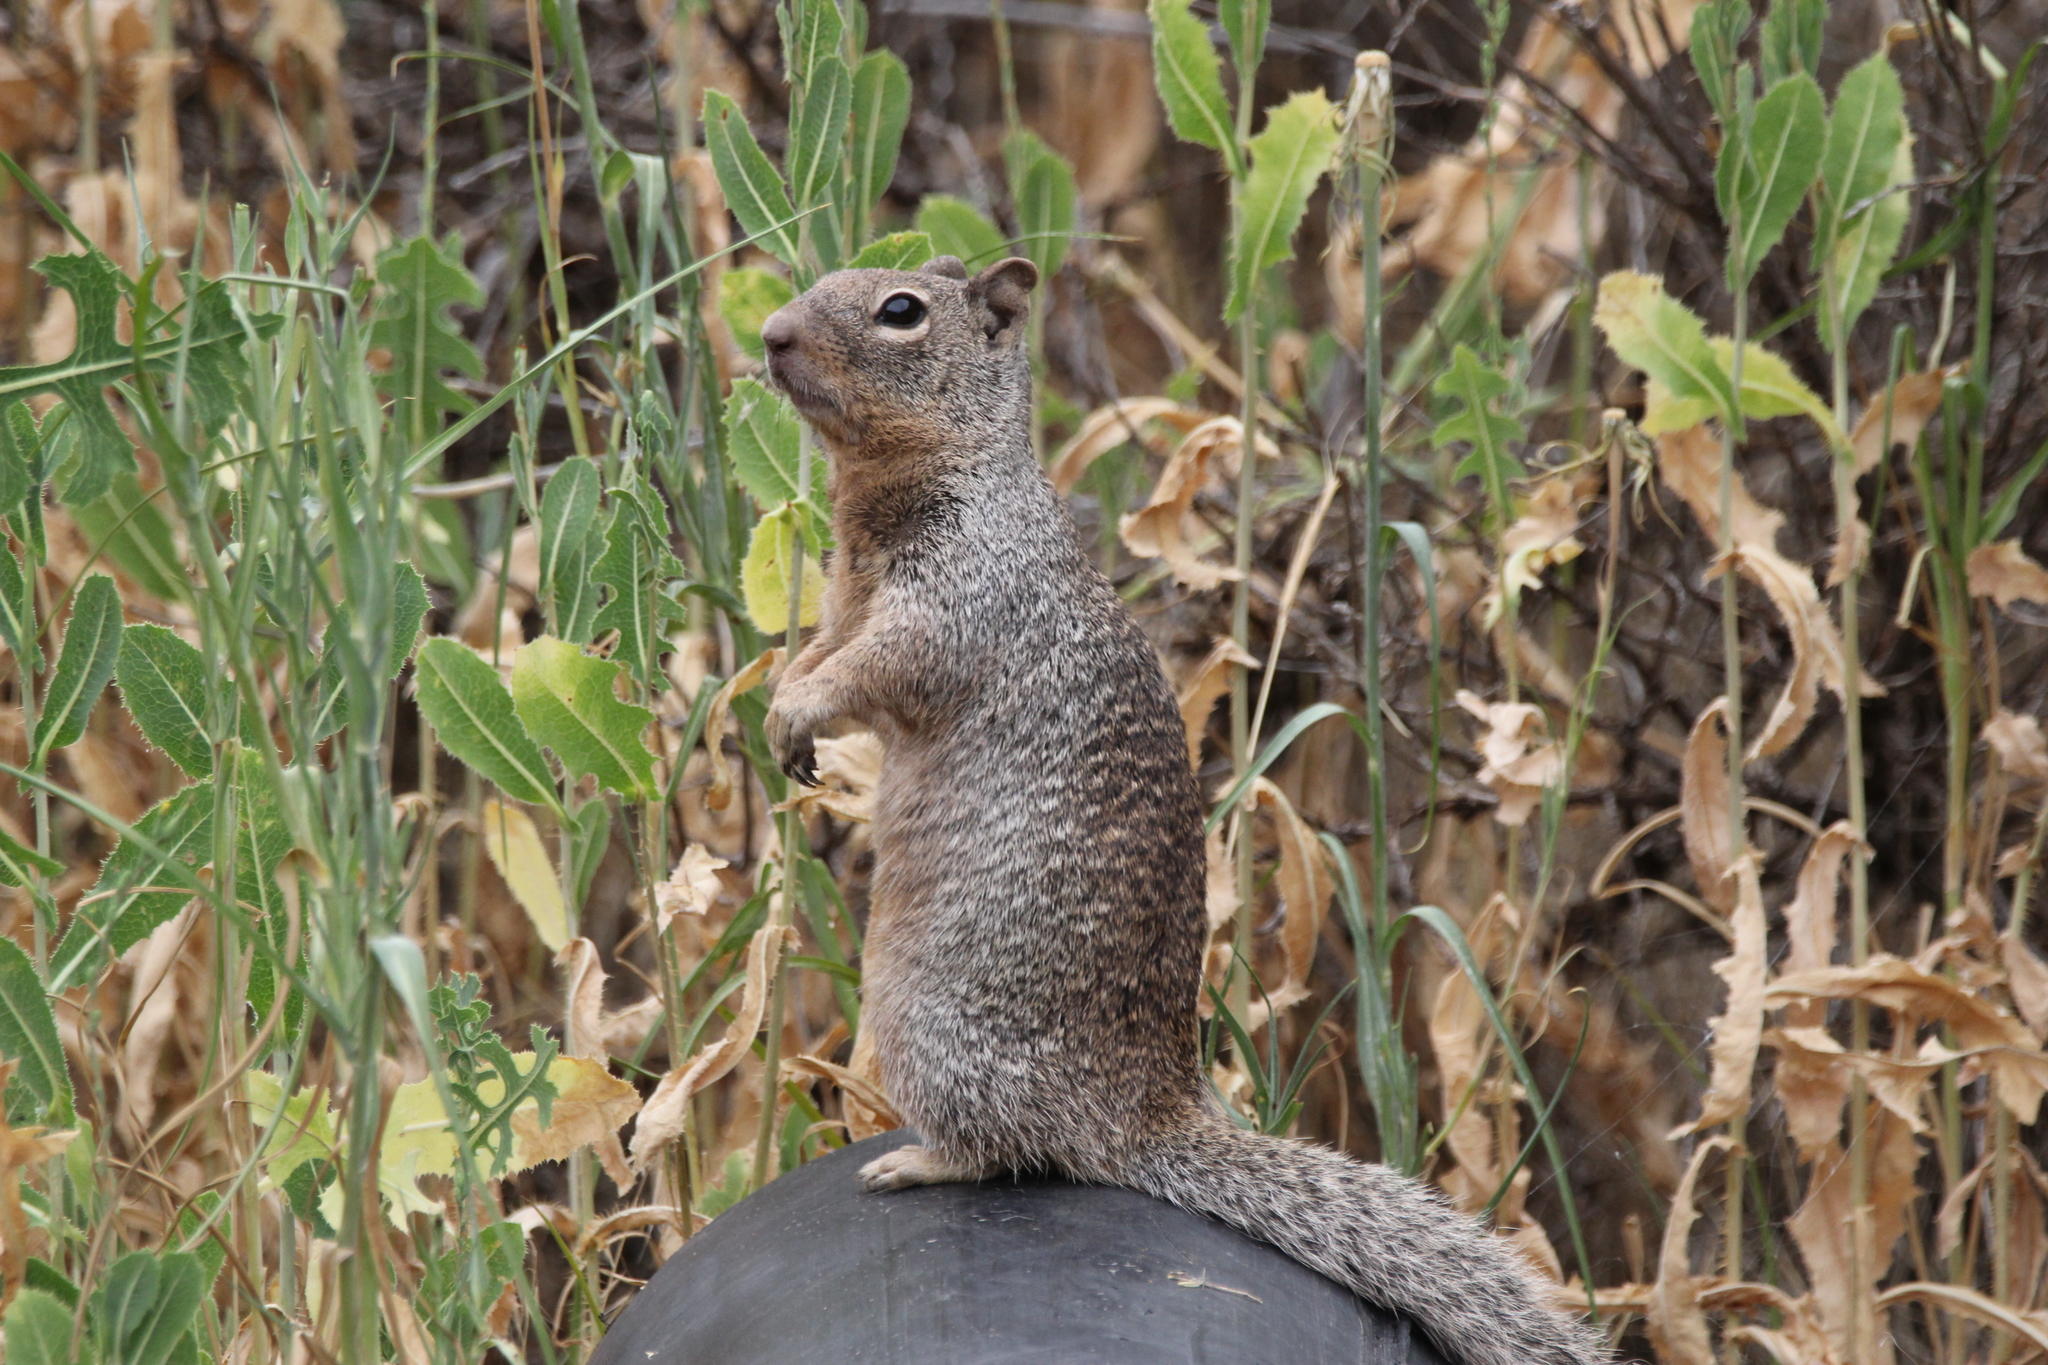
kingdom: Animalia
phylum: Chordata
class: Mammalia
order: Rodentia
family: Sciuridae
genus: Otospermophilus
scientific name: Otospermophilus variegatus
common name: Rock squirrel
